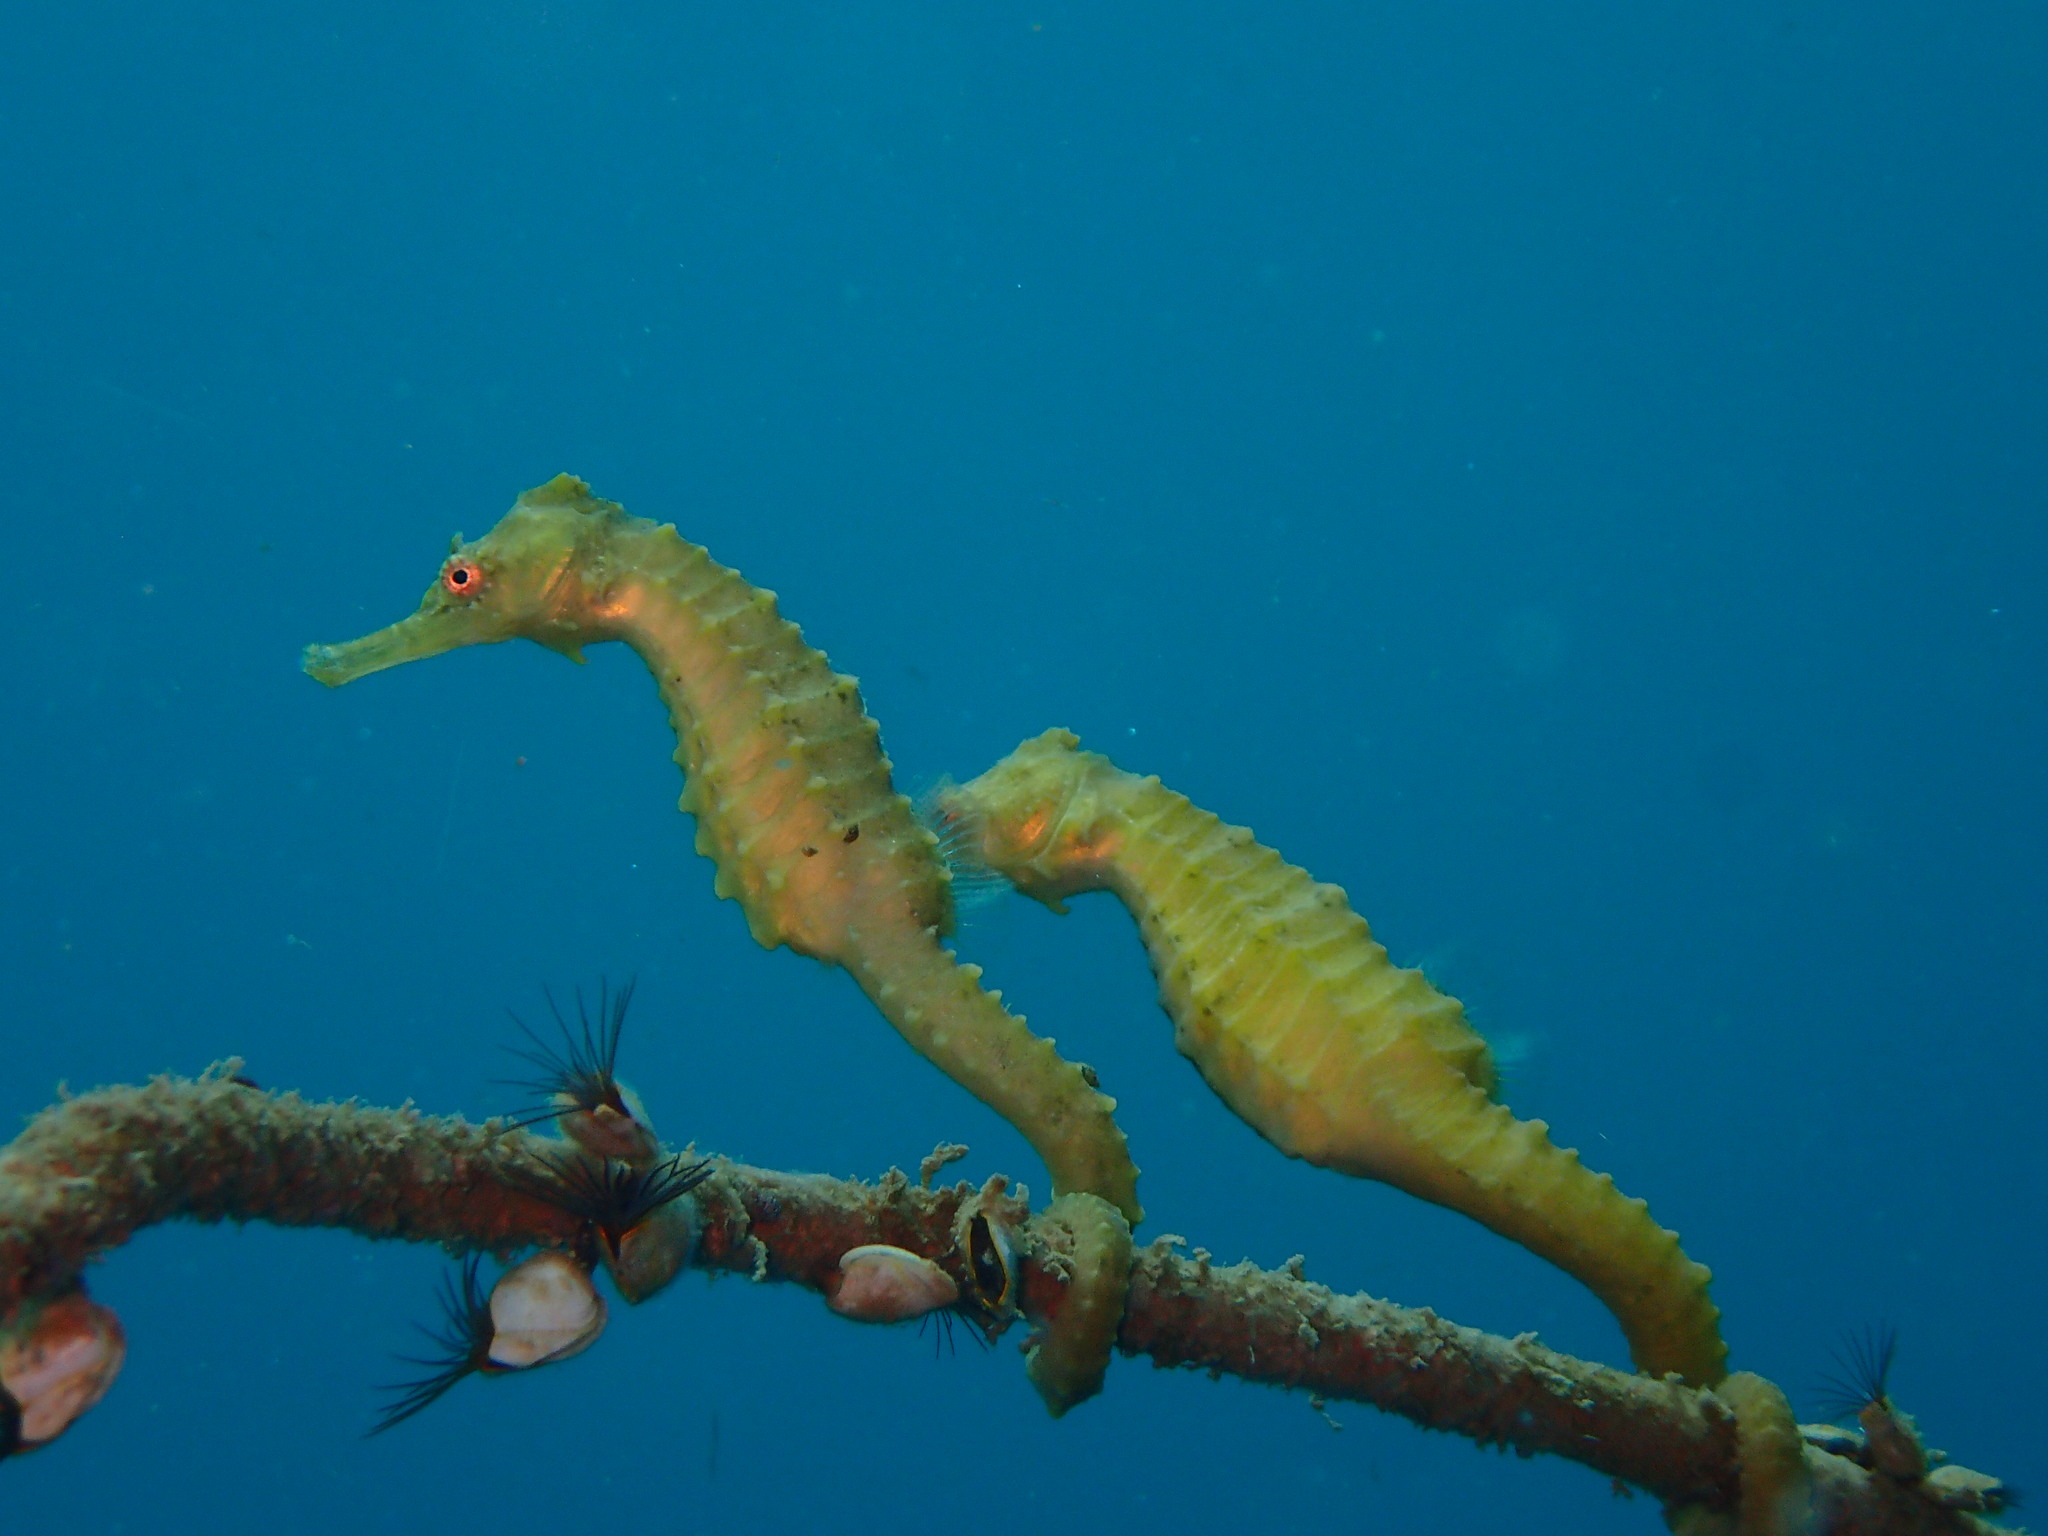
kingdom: Animalia
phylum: Chordata
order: Syngnathiformes
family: Syngnathidae
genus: Hippocampus
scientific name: Hippocampus trimaculatus
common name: Flat-faced seahorse
